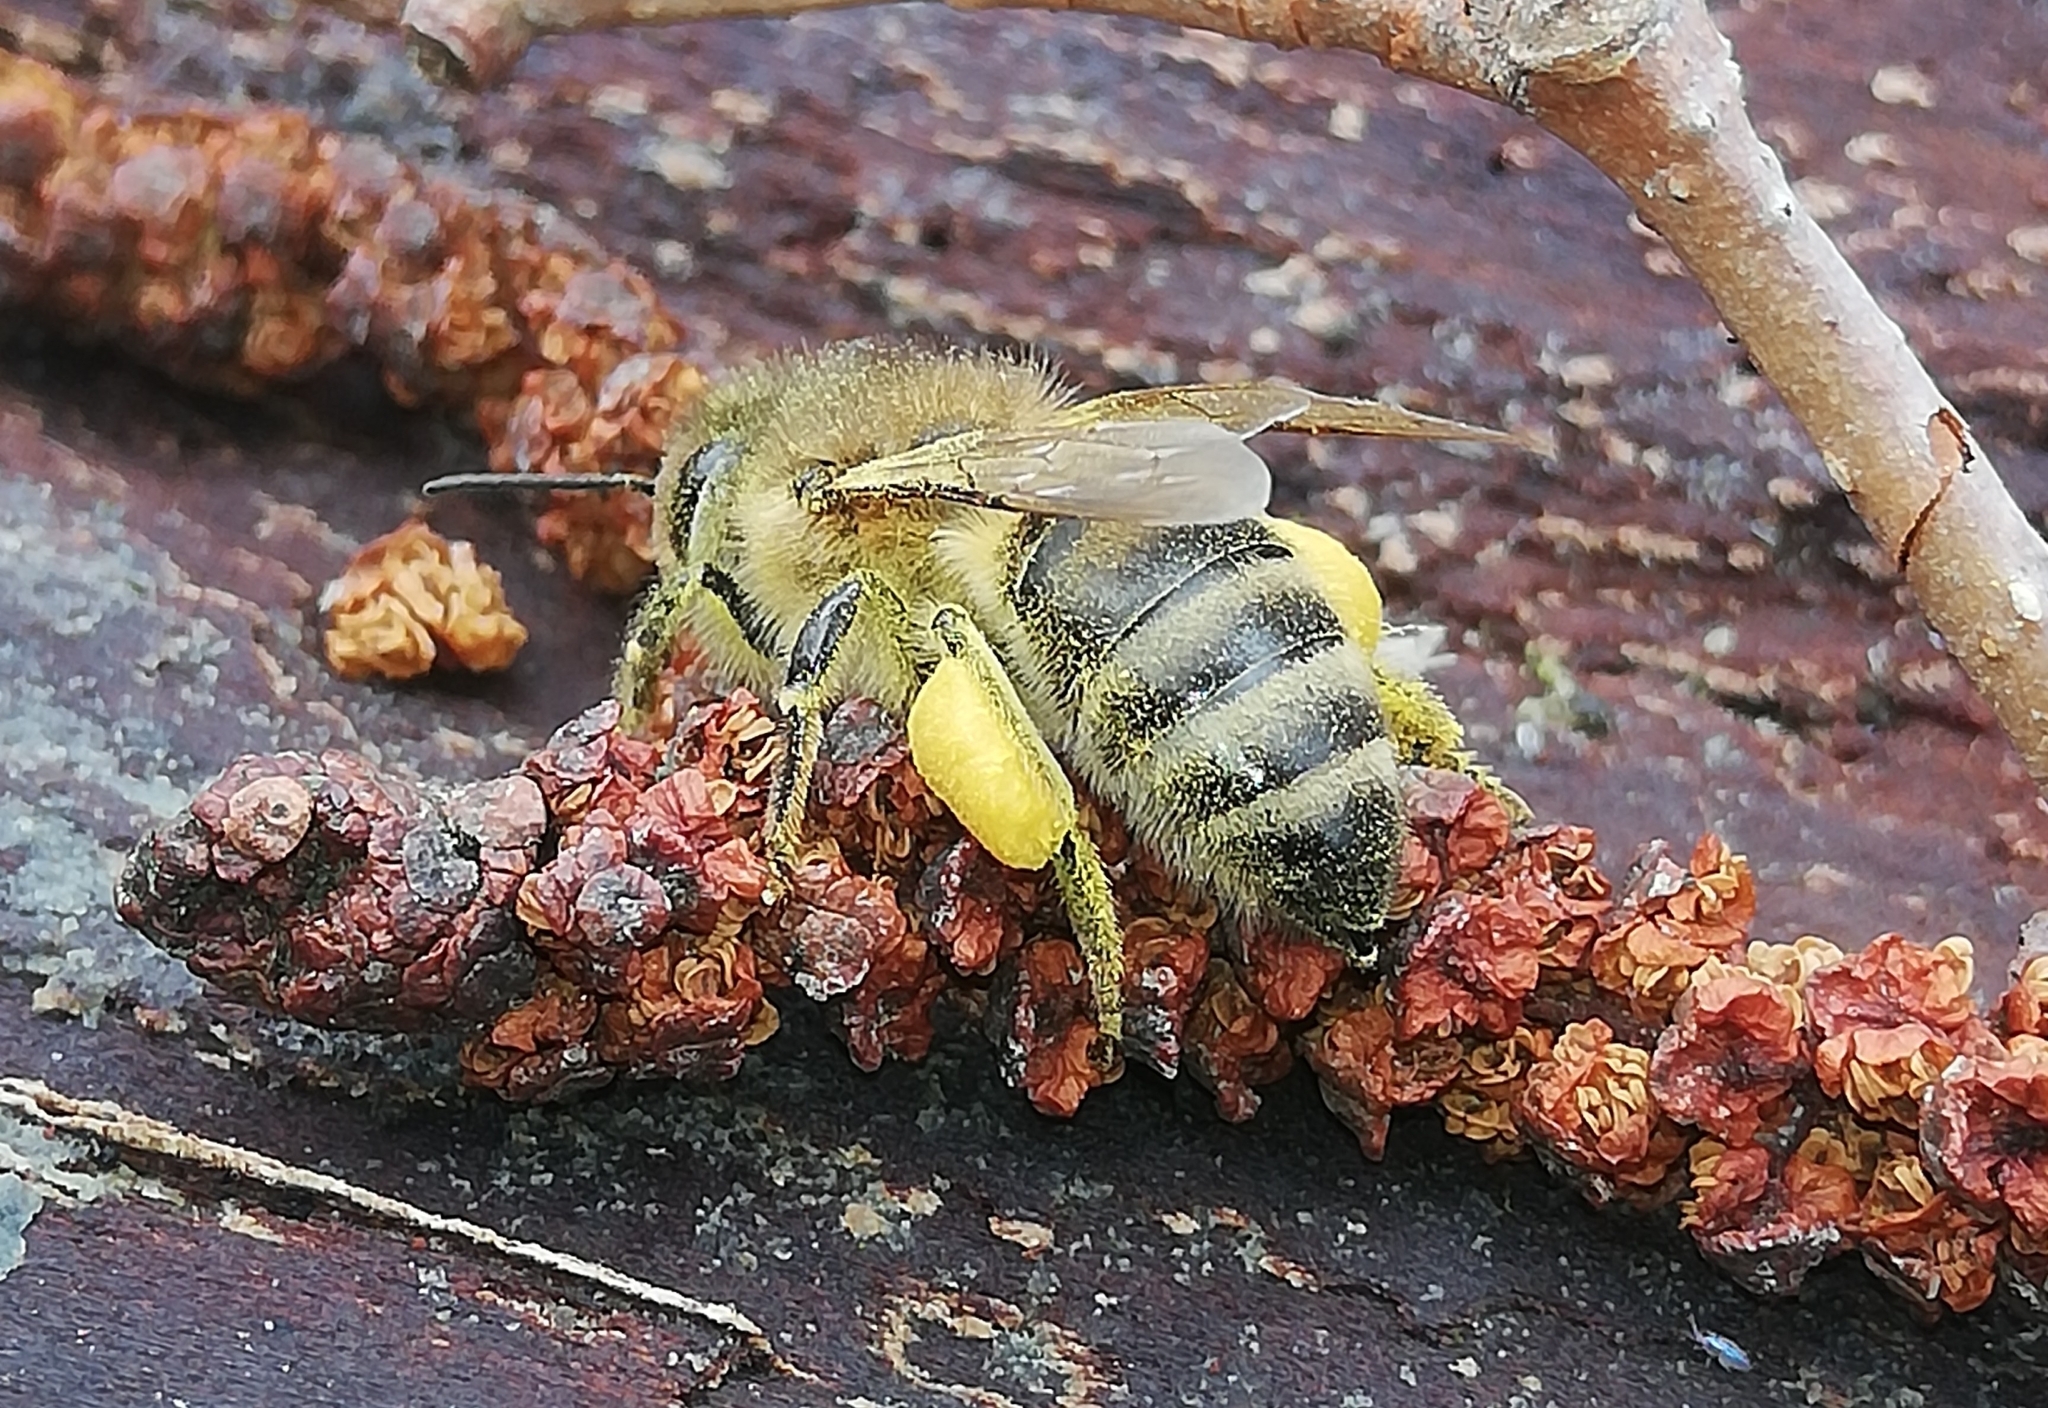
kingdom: Animalia
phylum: Arthropoda
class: Insecta
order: Hymenoptera
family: Apidae
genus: Apis
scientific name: Apis mellifera
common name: Honey bee
